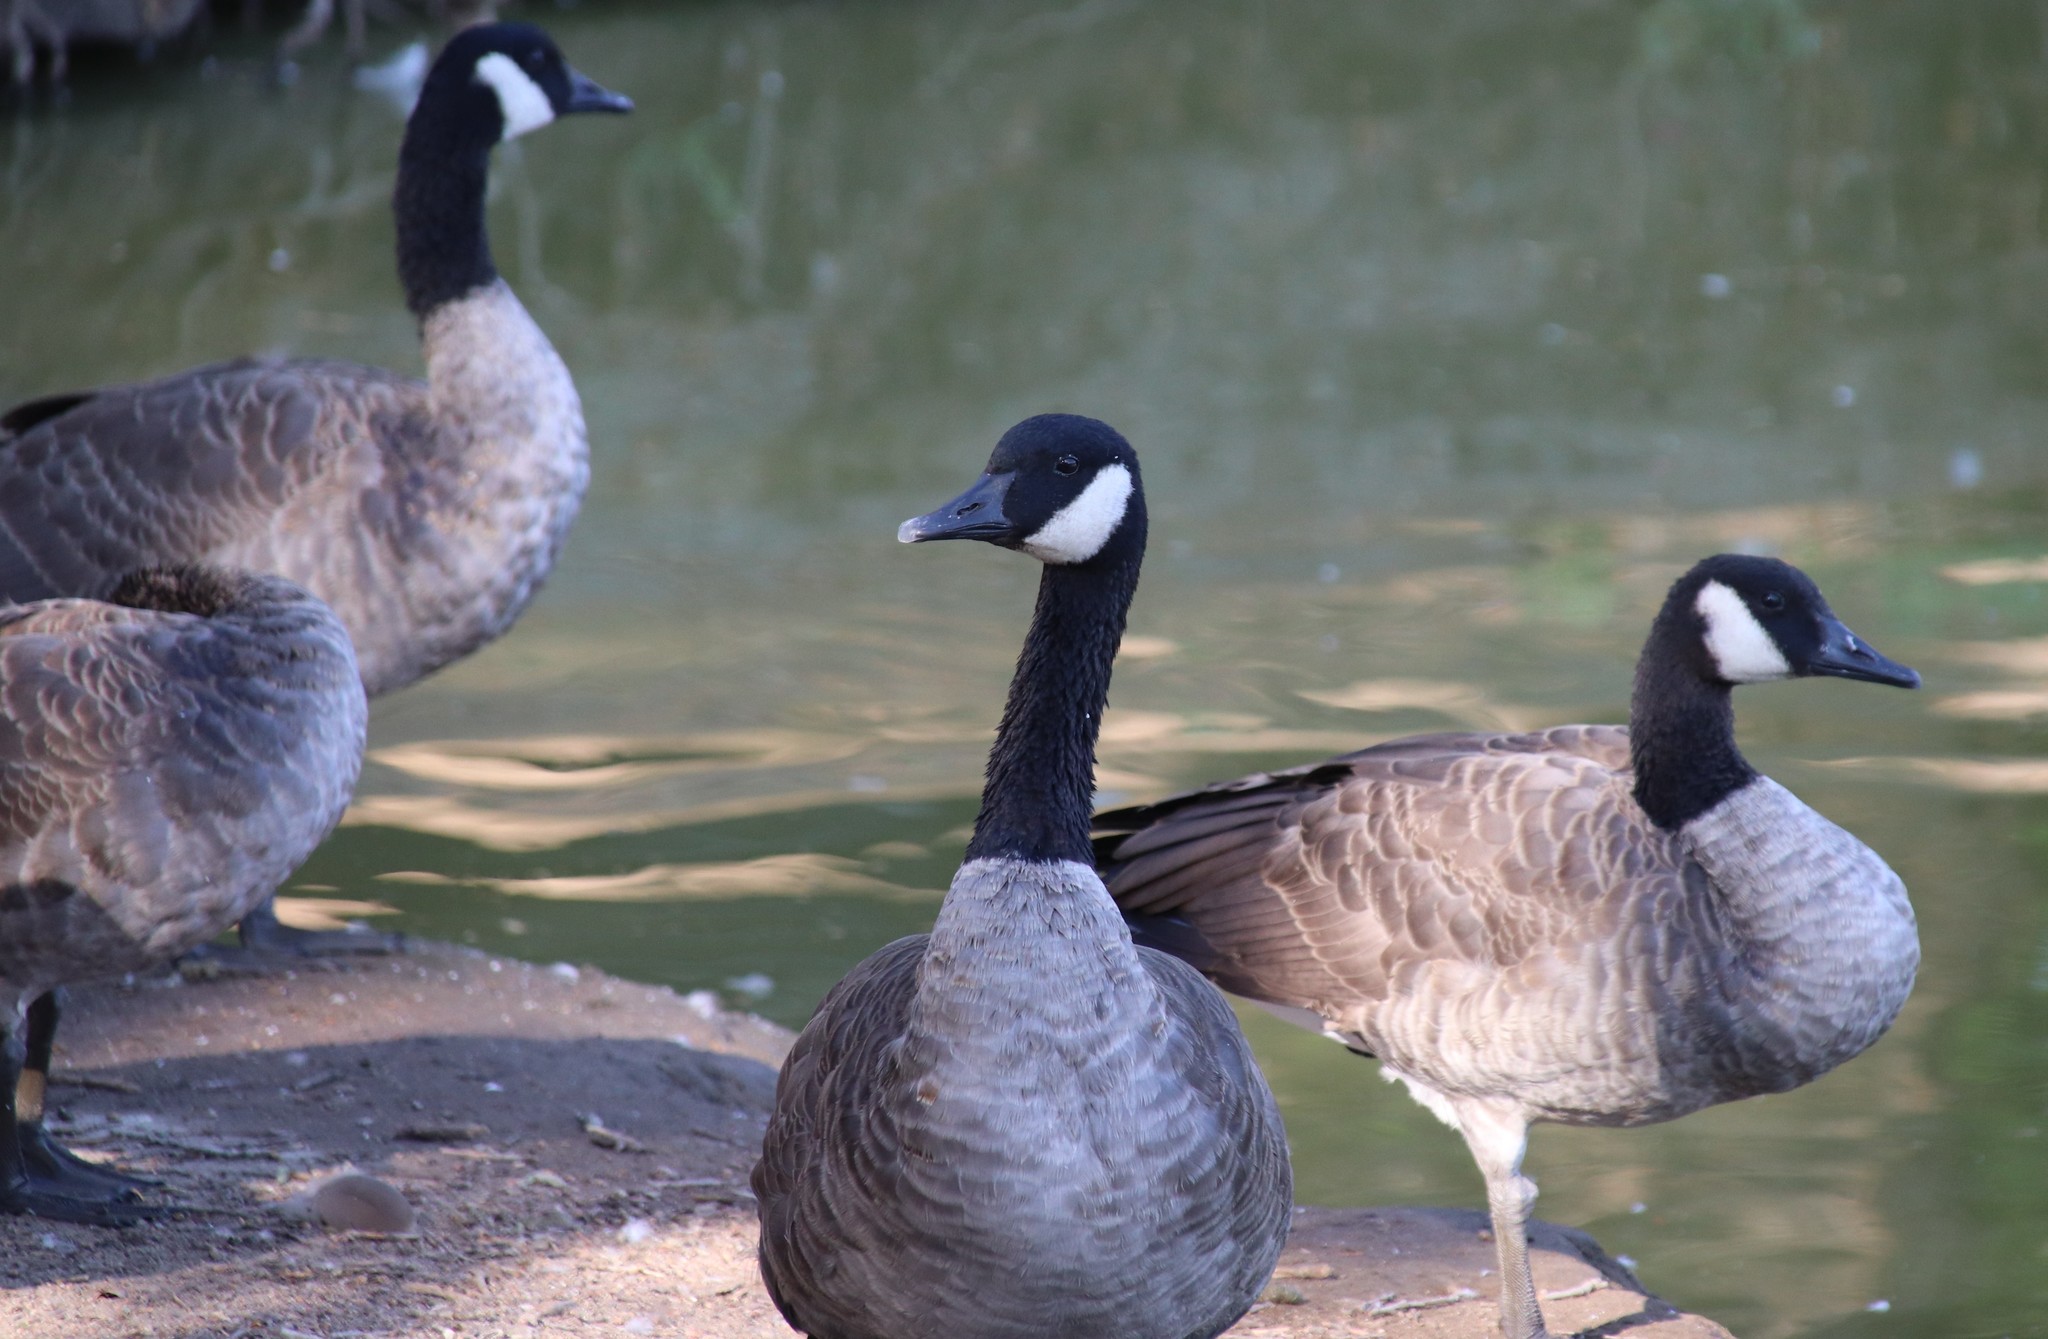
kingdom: Animalia
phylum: Chordata
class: Aves
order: Anseriformes
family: Anatidae
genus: Branta
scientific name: Branta canadensis
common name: Canada goose
